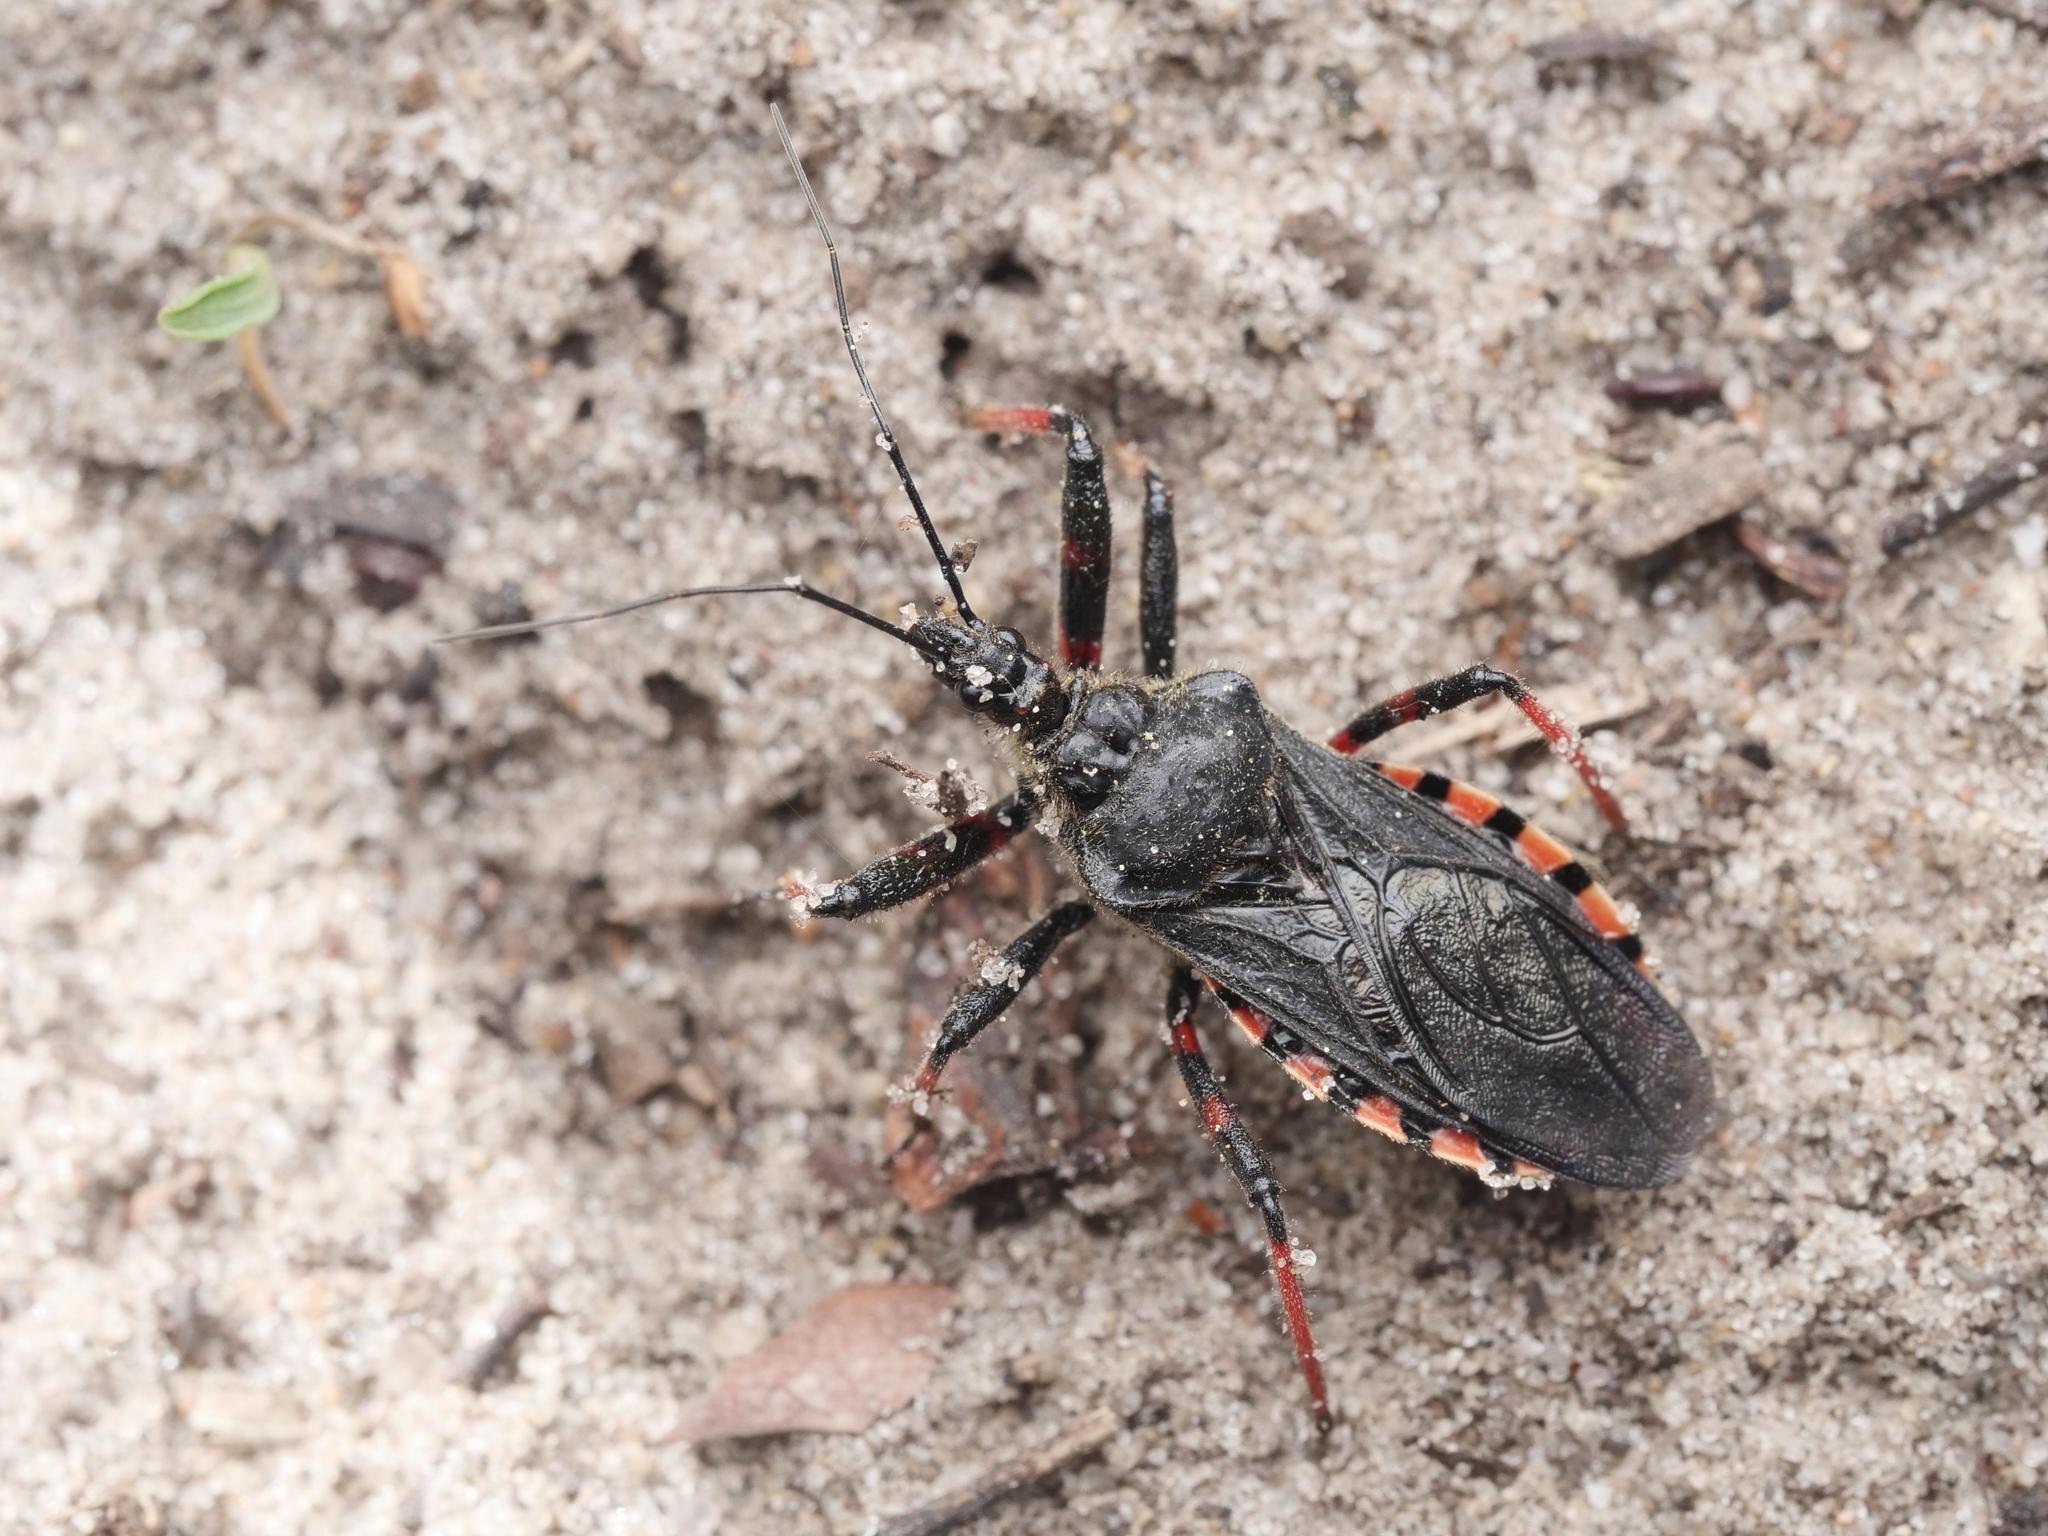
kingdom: Animalia
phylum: Arthropoda
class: Insecta
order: Hemiptera
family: Reduviidae
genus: Rhynocoris
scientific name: Rhynocoris annulatus
